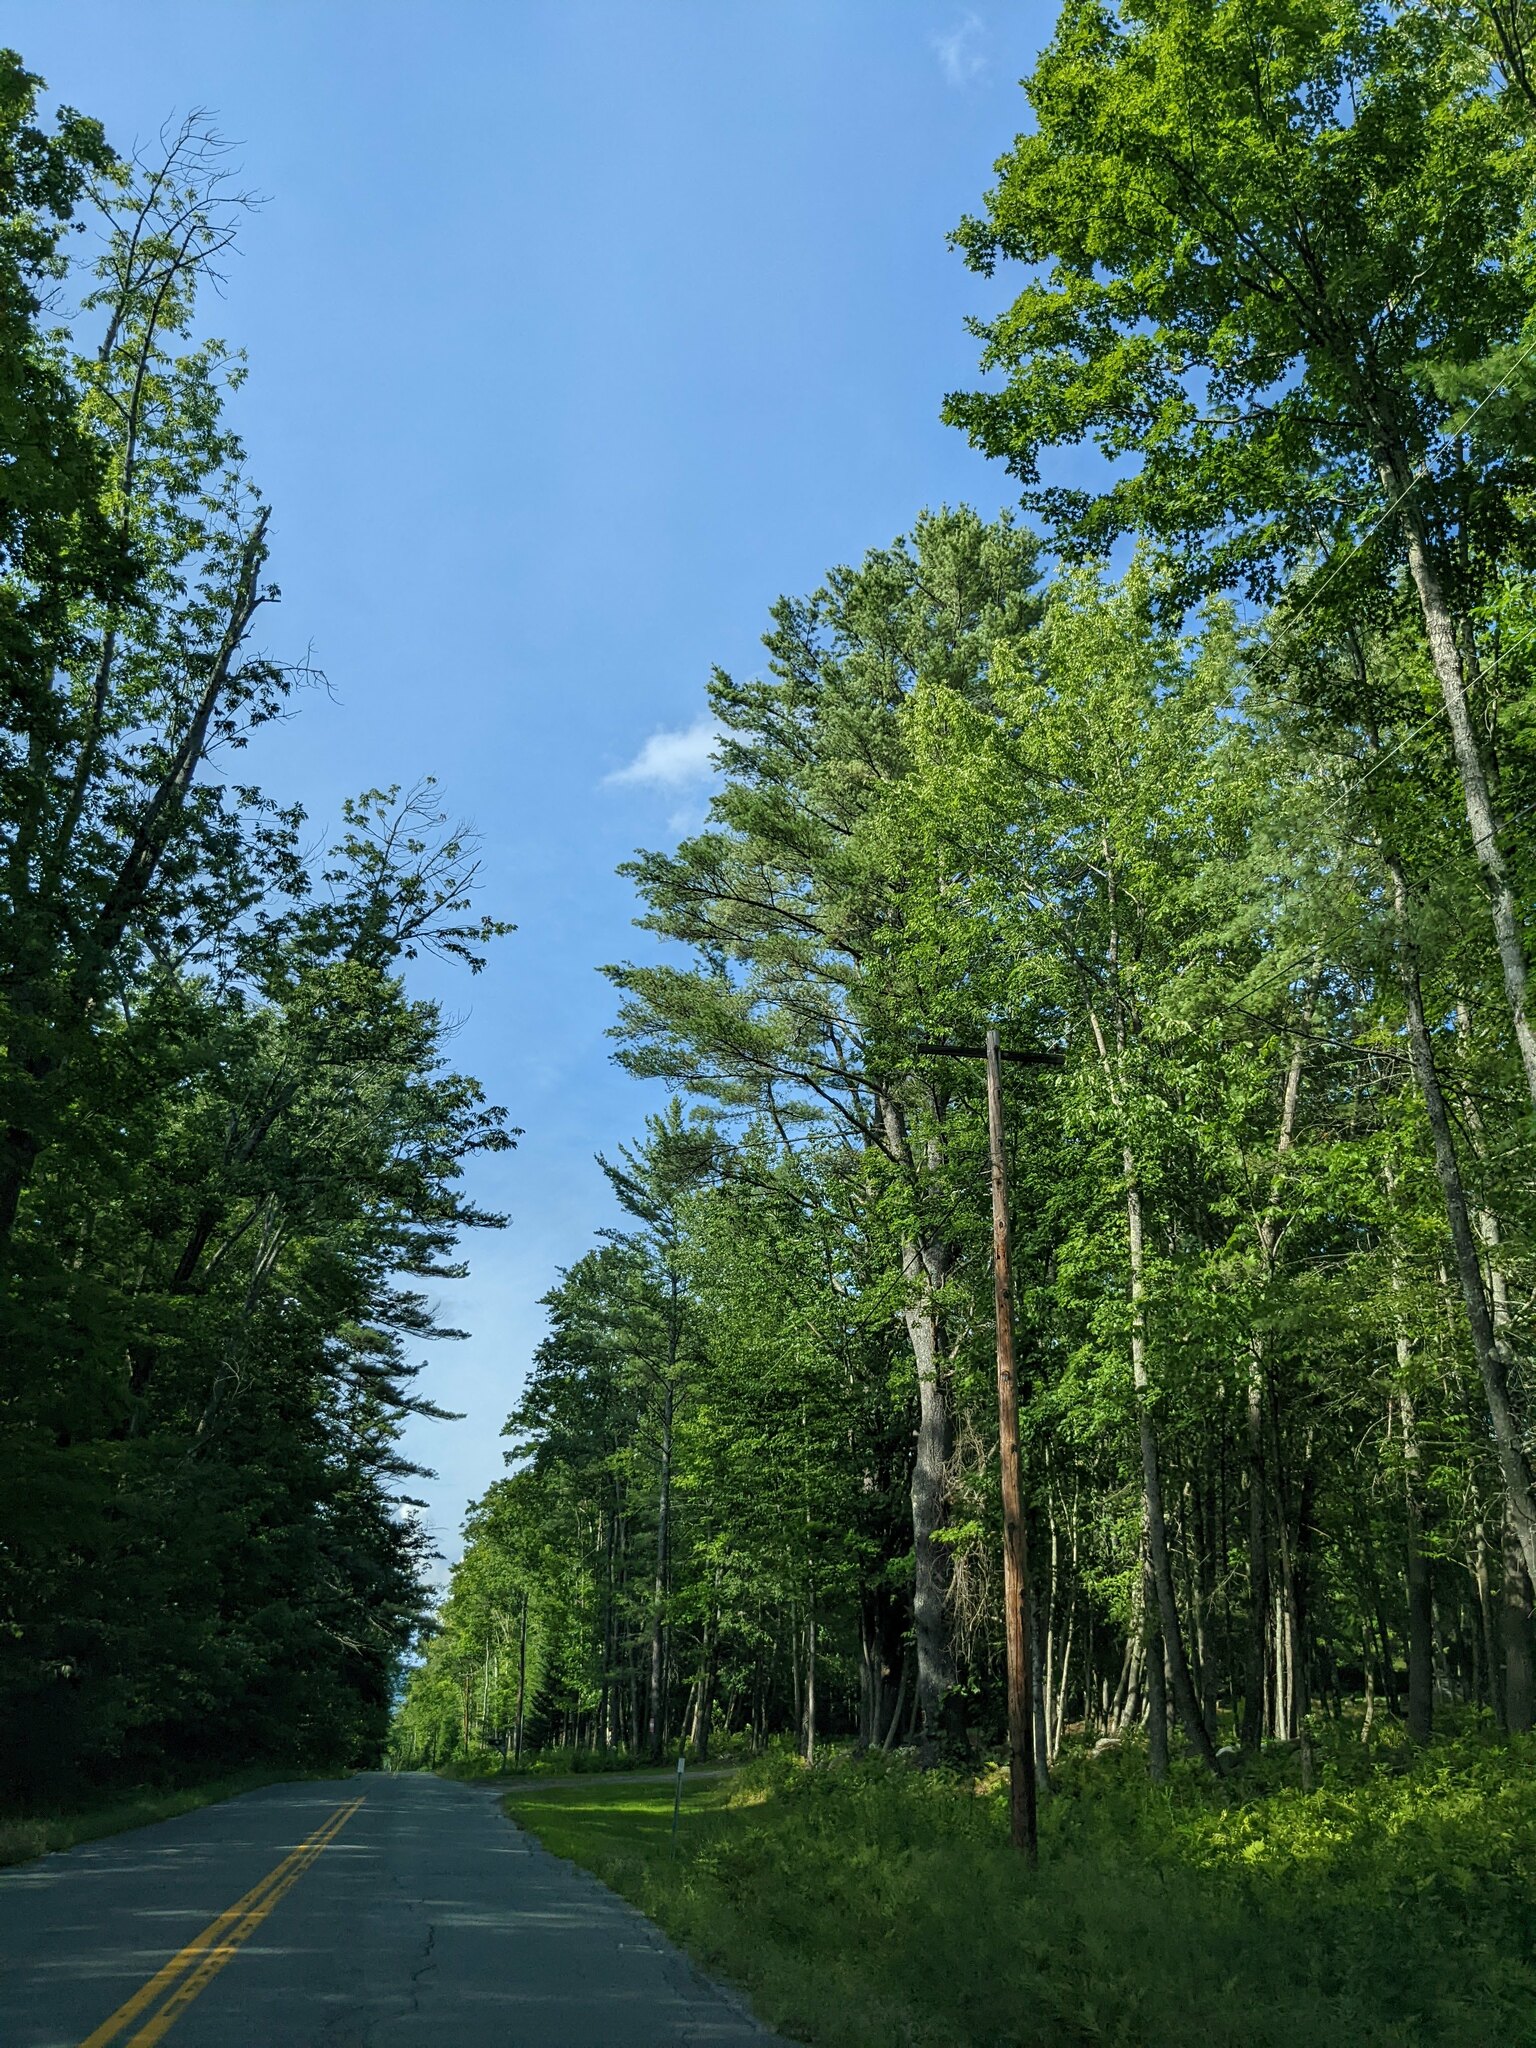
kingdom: Plantae
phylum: Tracheophyta
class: Pinopsida
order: Pinales
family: Pinaceae
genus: Pinus
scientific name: Pinus strobus
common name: Weymouth pine
